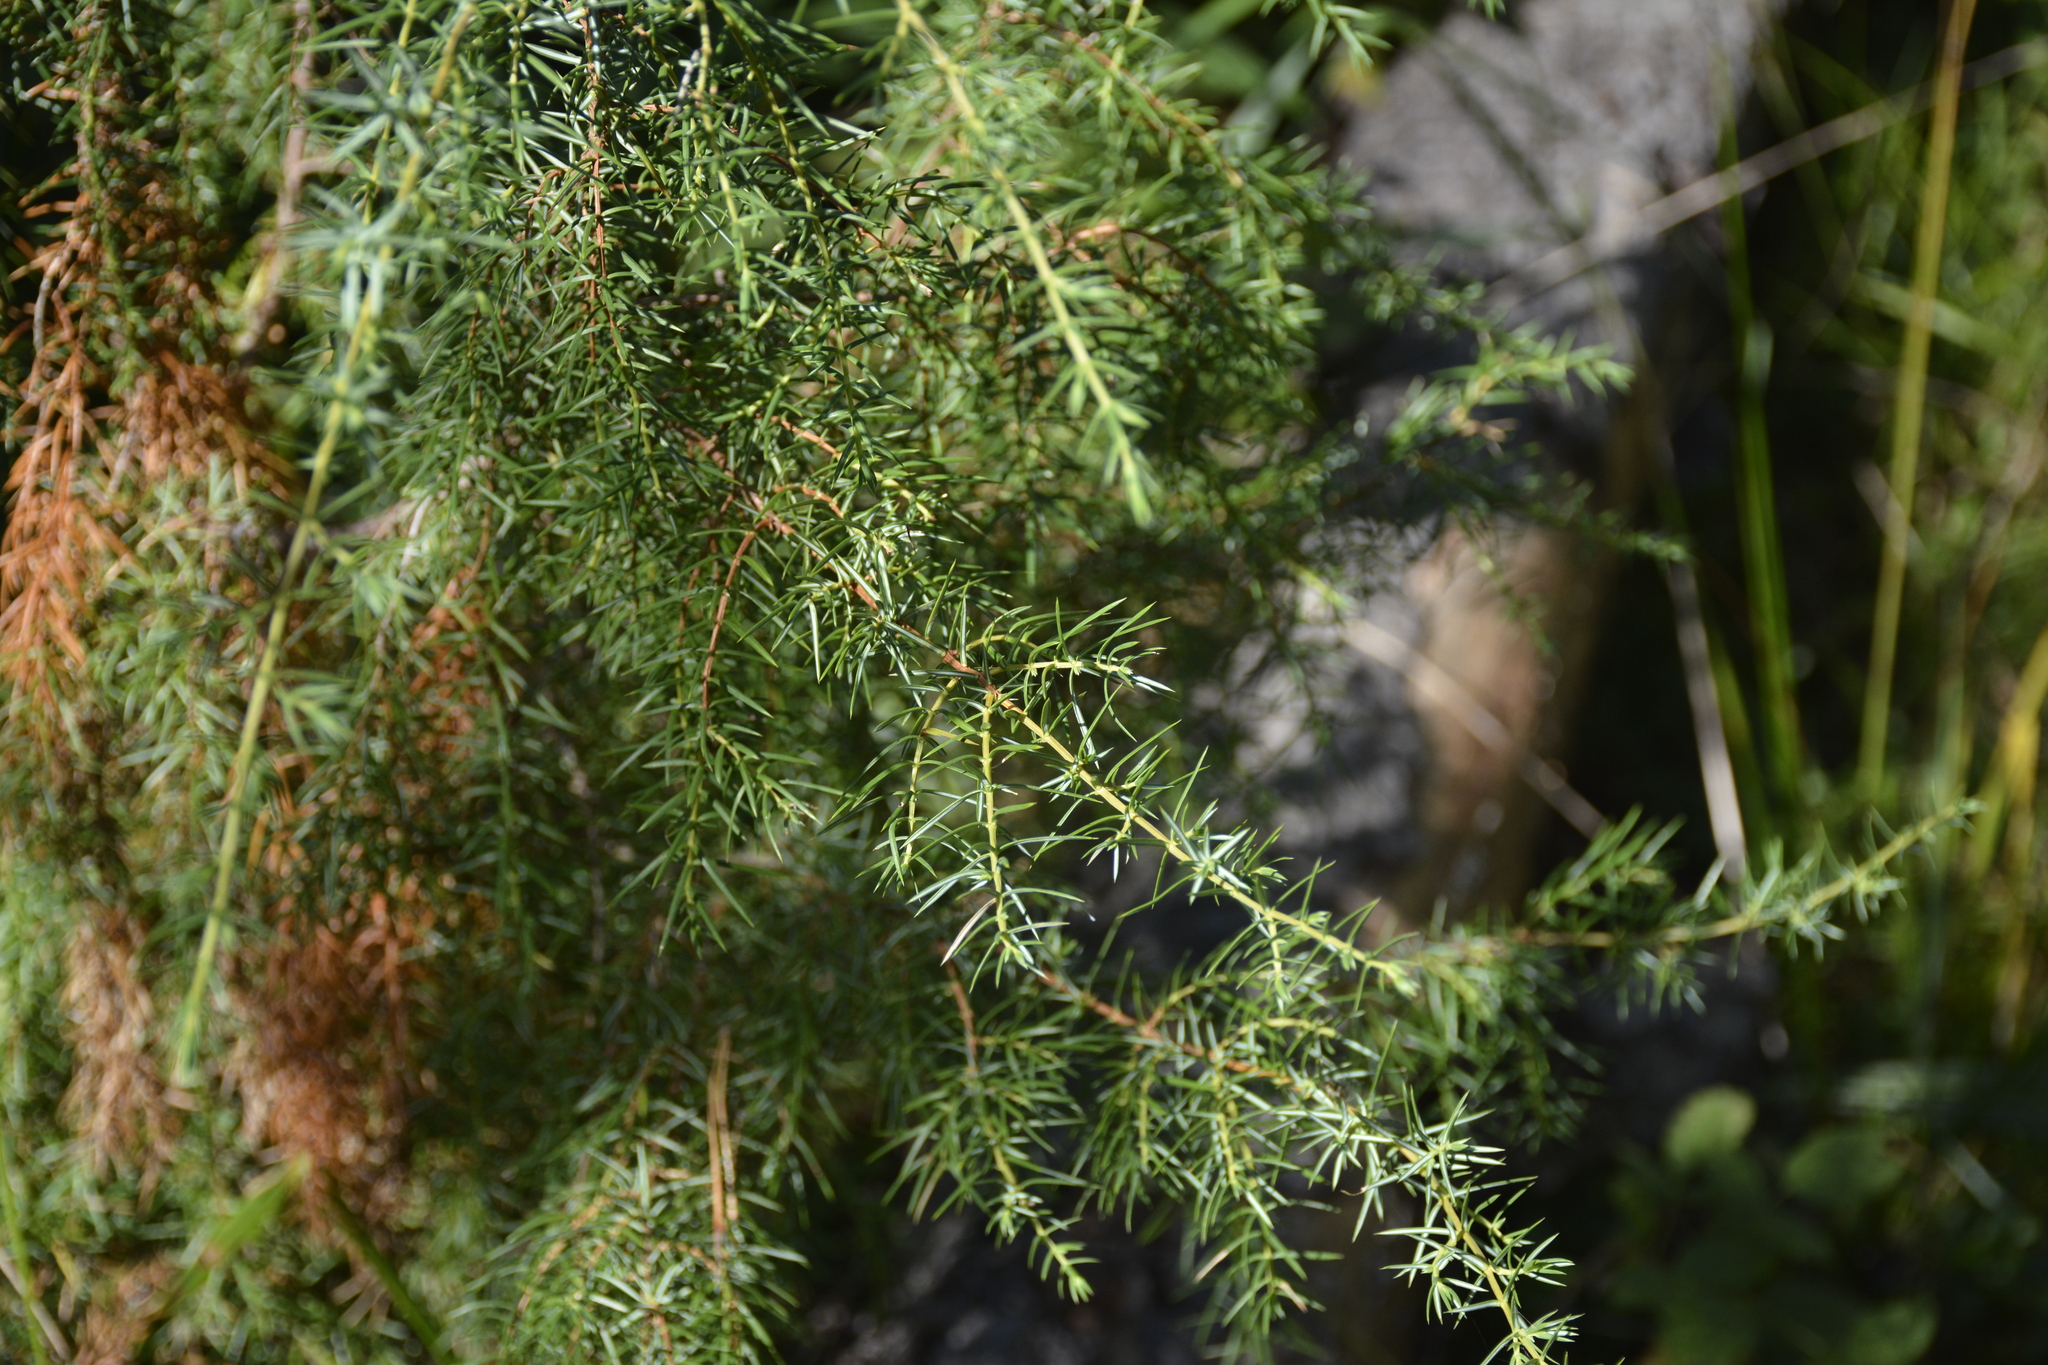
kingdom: Plantae
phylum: Tracheophyta
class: Pinopsida
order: Pinales
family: Cupressaceae
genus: Juniperus
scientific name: Juniperus communis
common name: Common juniper
